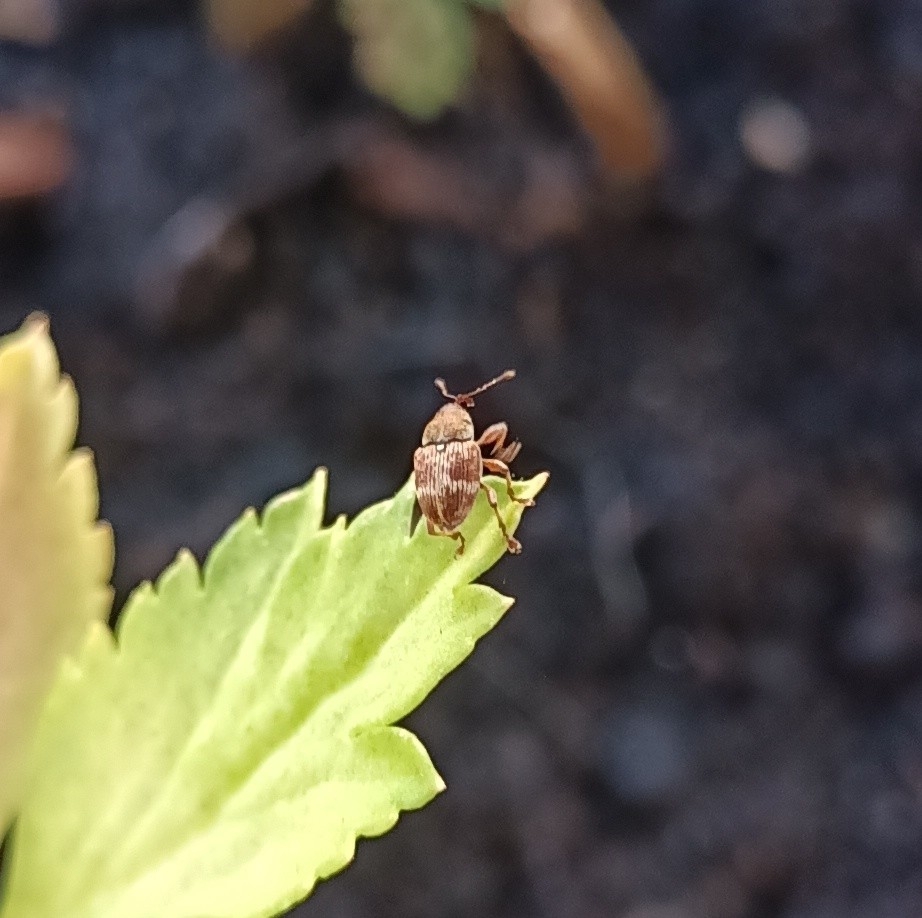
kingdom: Animalia
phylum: Arthropoda
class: Insecta
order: Coleoptera
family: Curculionidae
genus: Curculio
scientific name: Curculio rubidus
